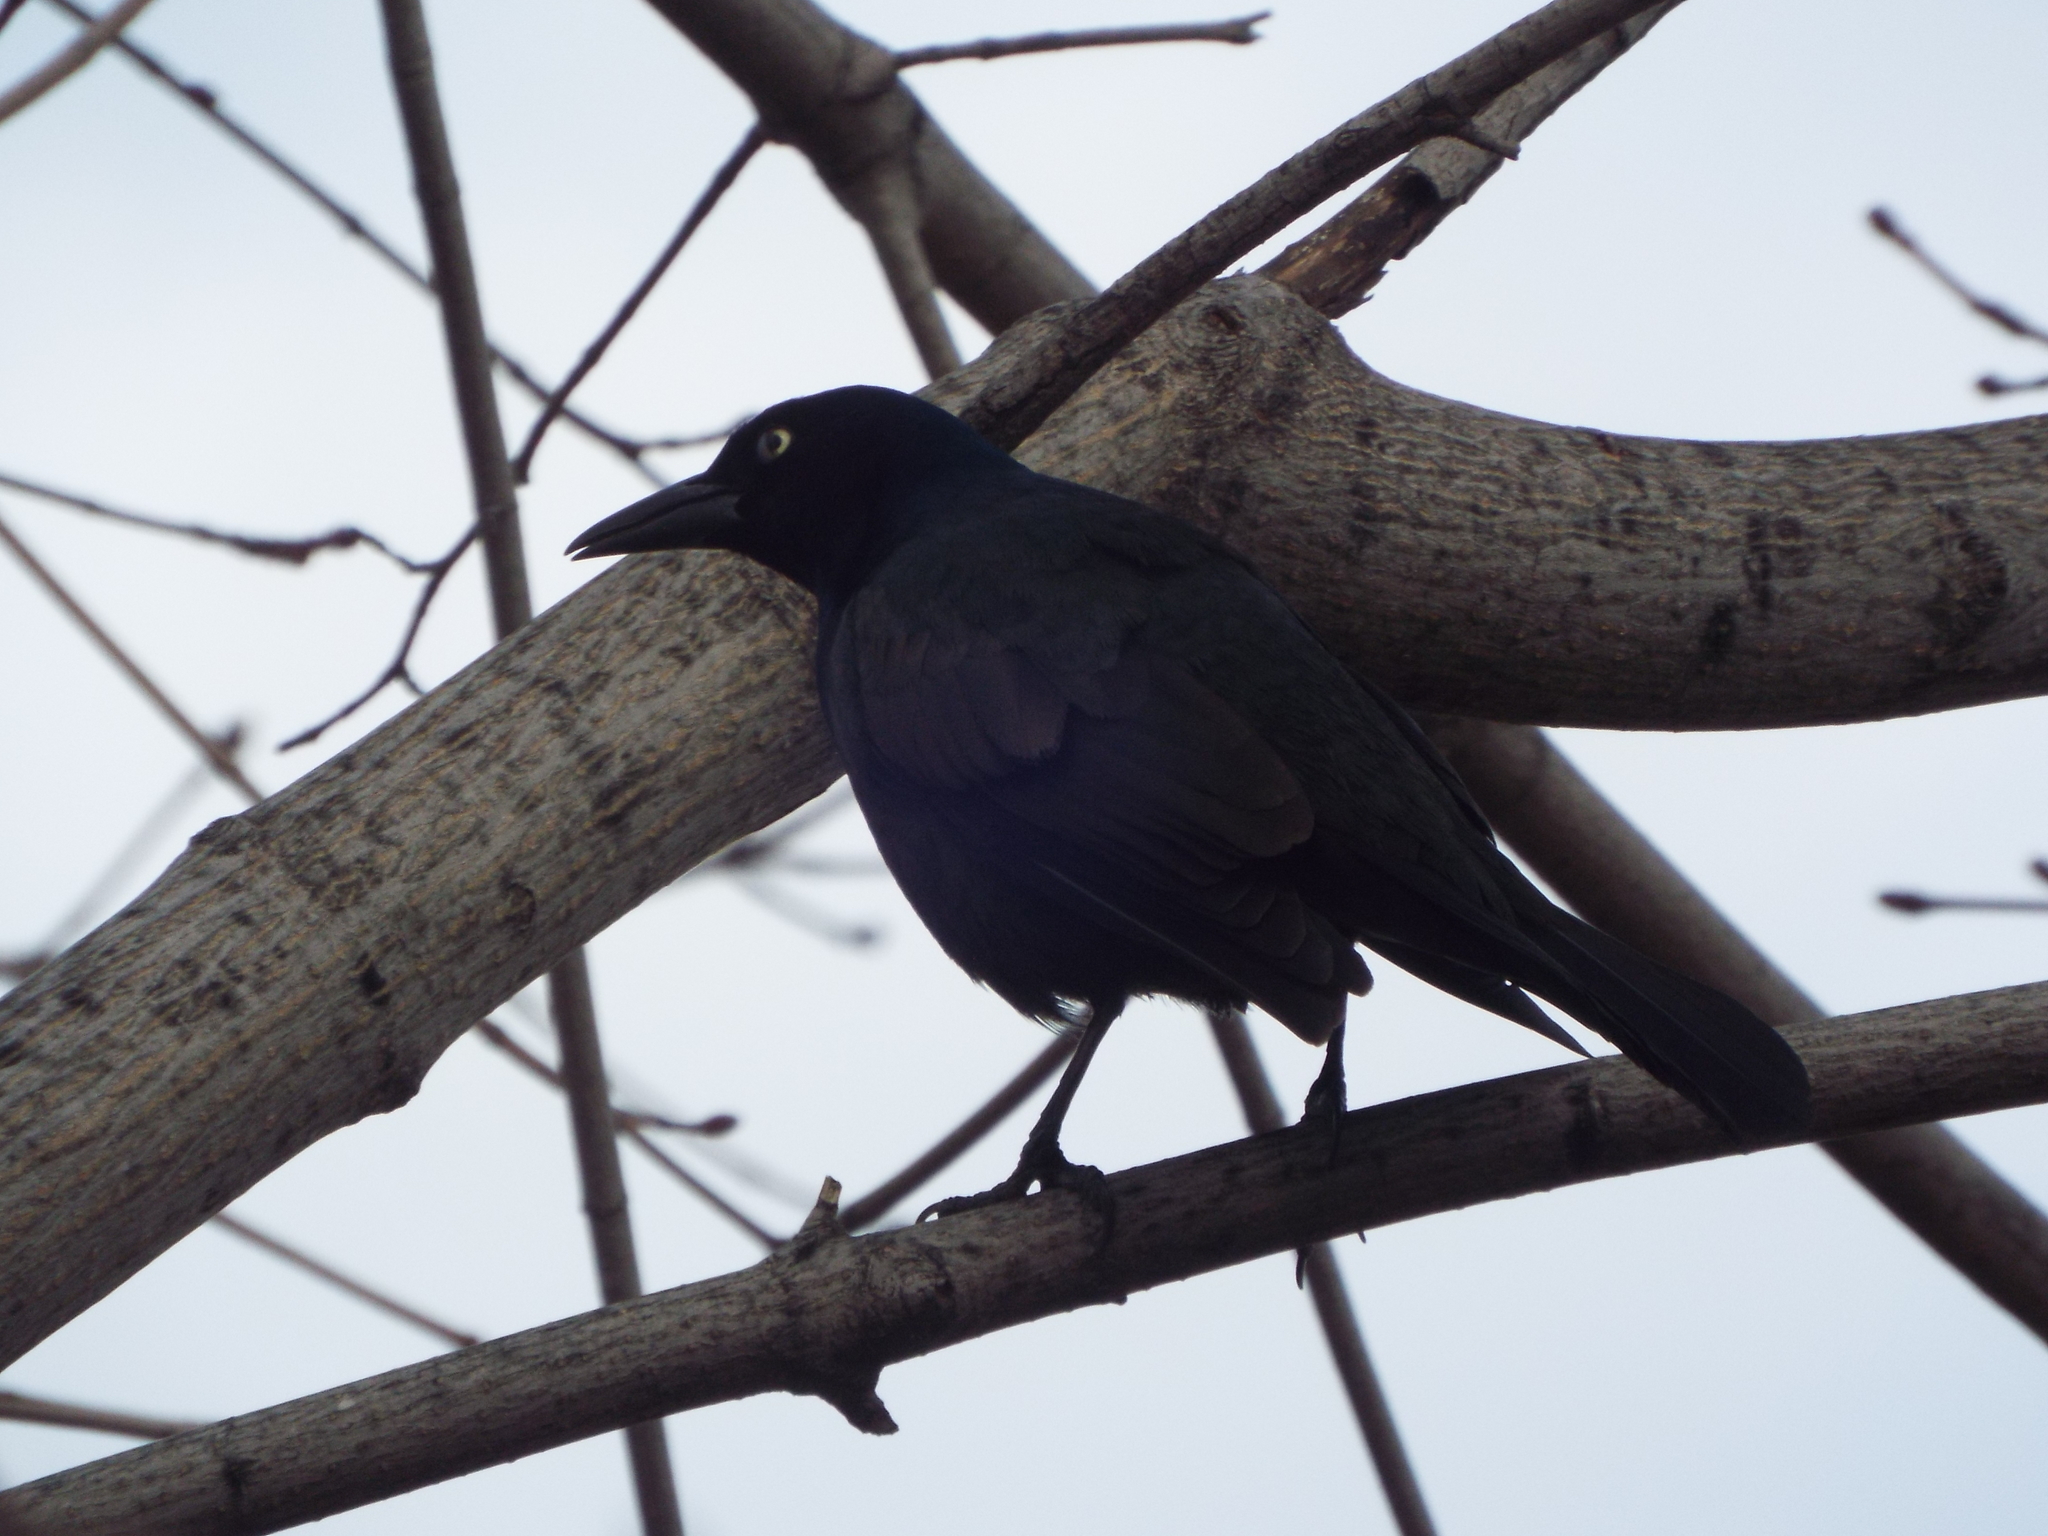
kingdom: Animalia
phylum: Chordata
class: Aves
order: Passeriformes
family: Icteridae
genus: Quiscalus
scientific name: Quiscalus quiscula
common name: Common grackle
